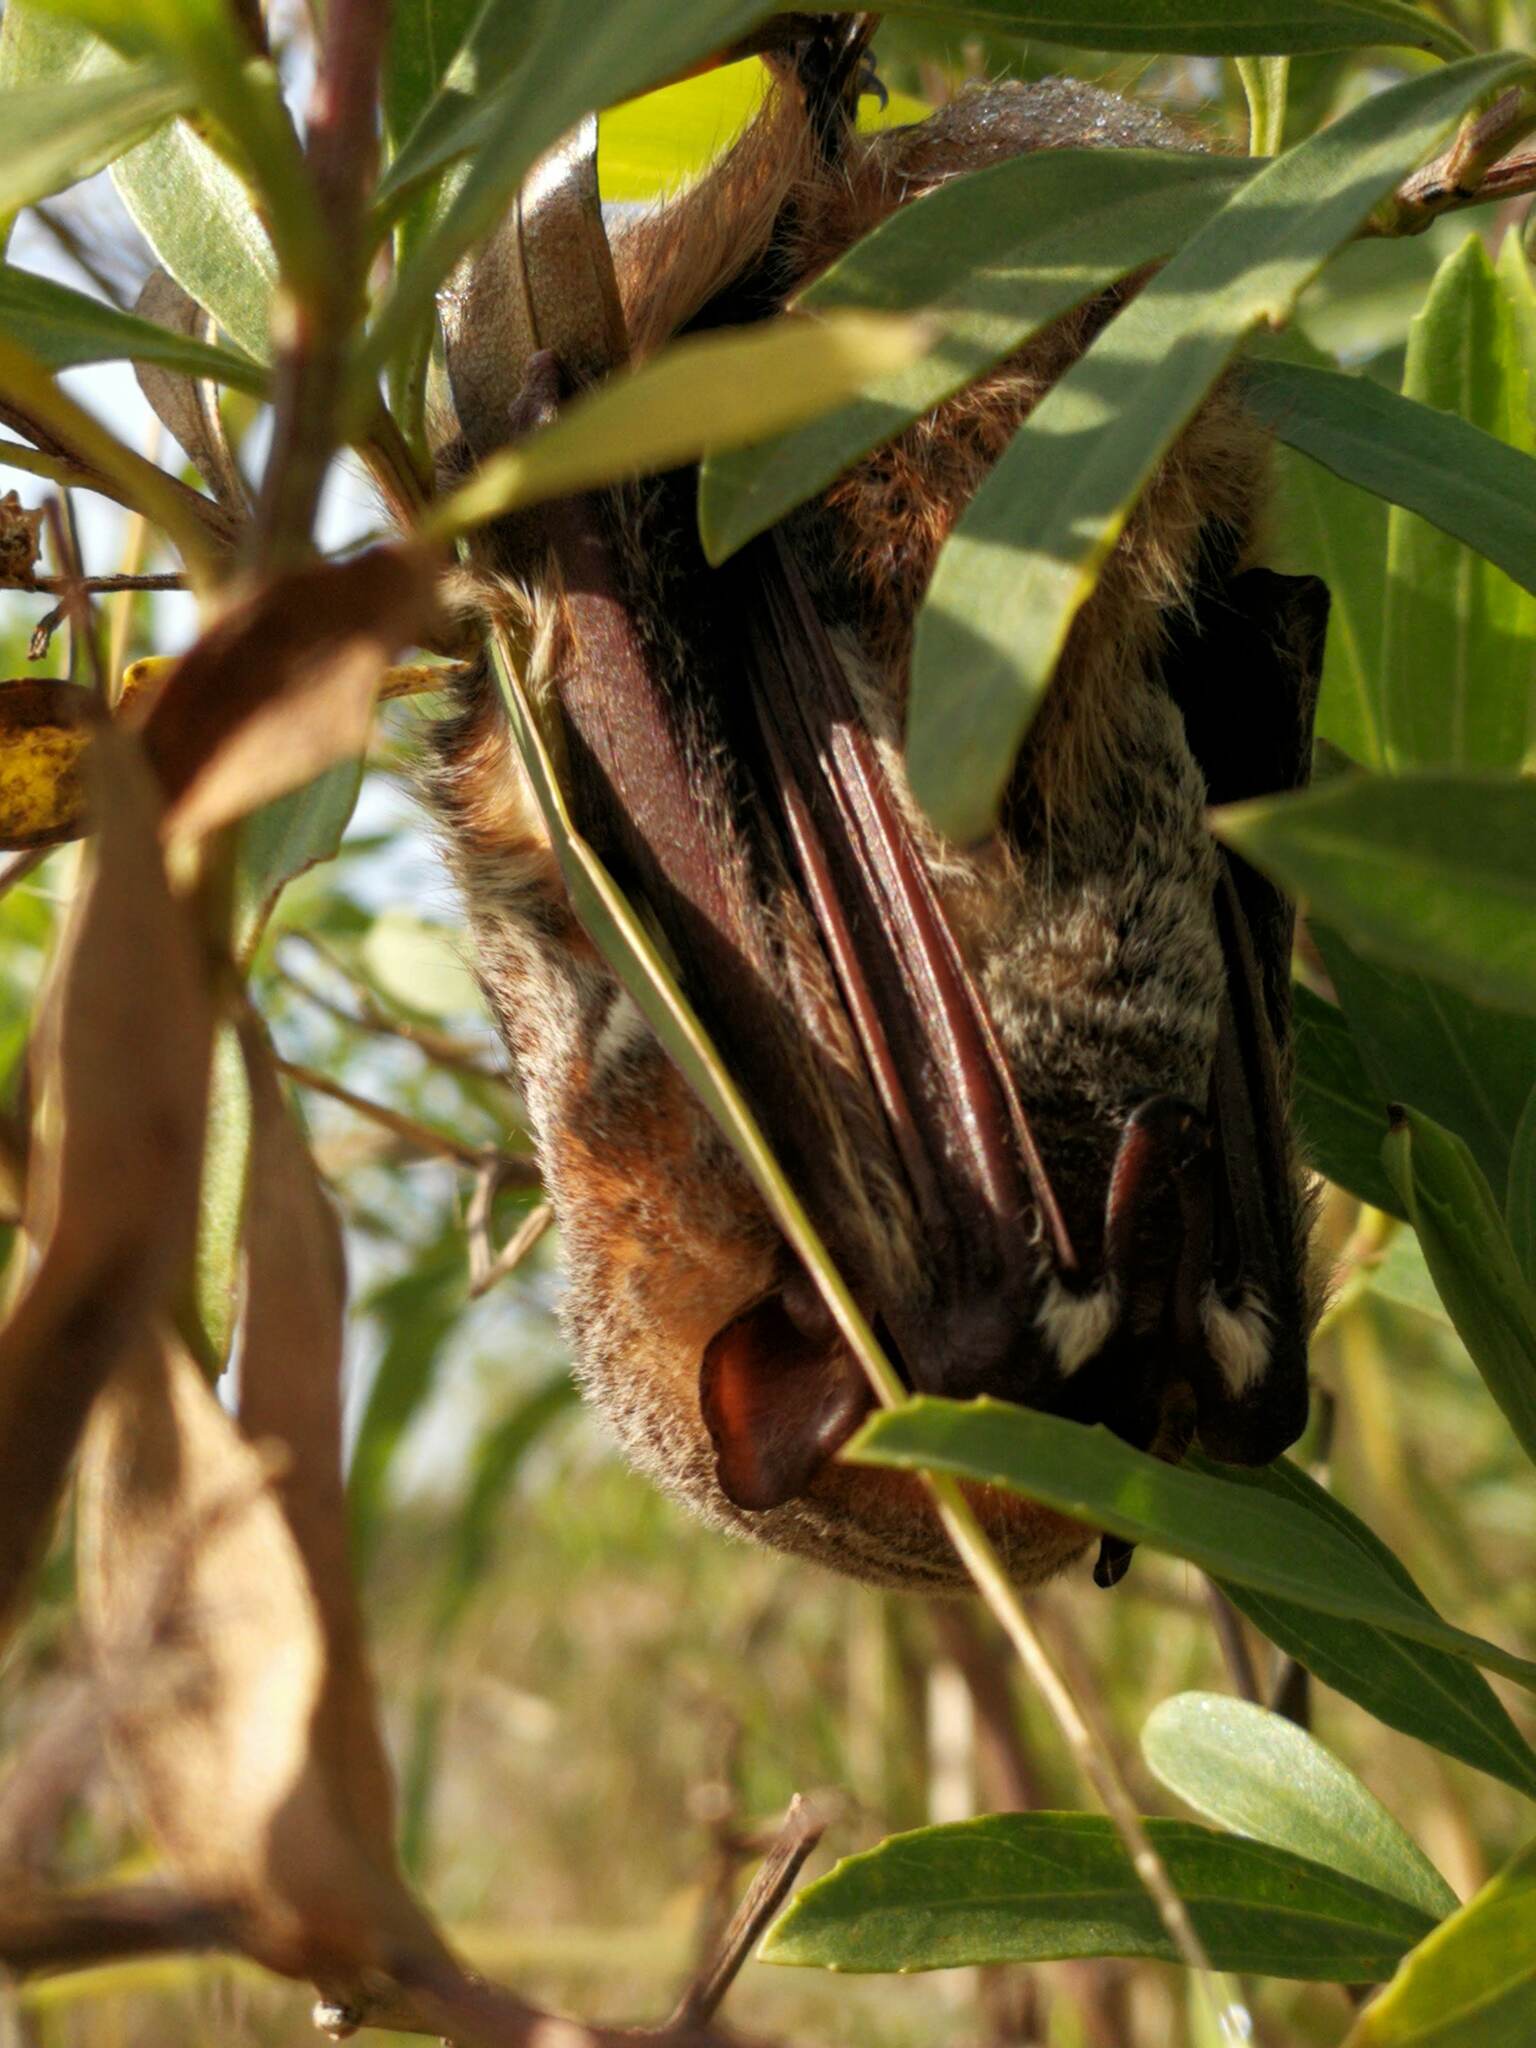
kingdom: Animalia
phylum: Chordata
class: Mammalia
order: Chiroptera
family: Vespertilionidae
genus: Lasiurus
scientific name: Lasiurus blossevillii
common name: Southern red bat
